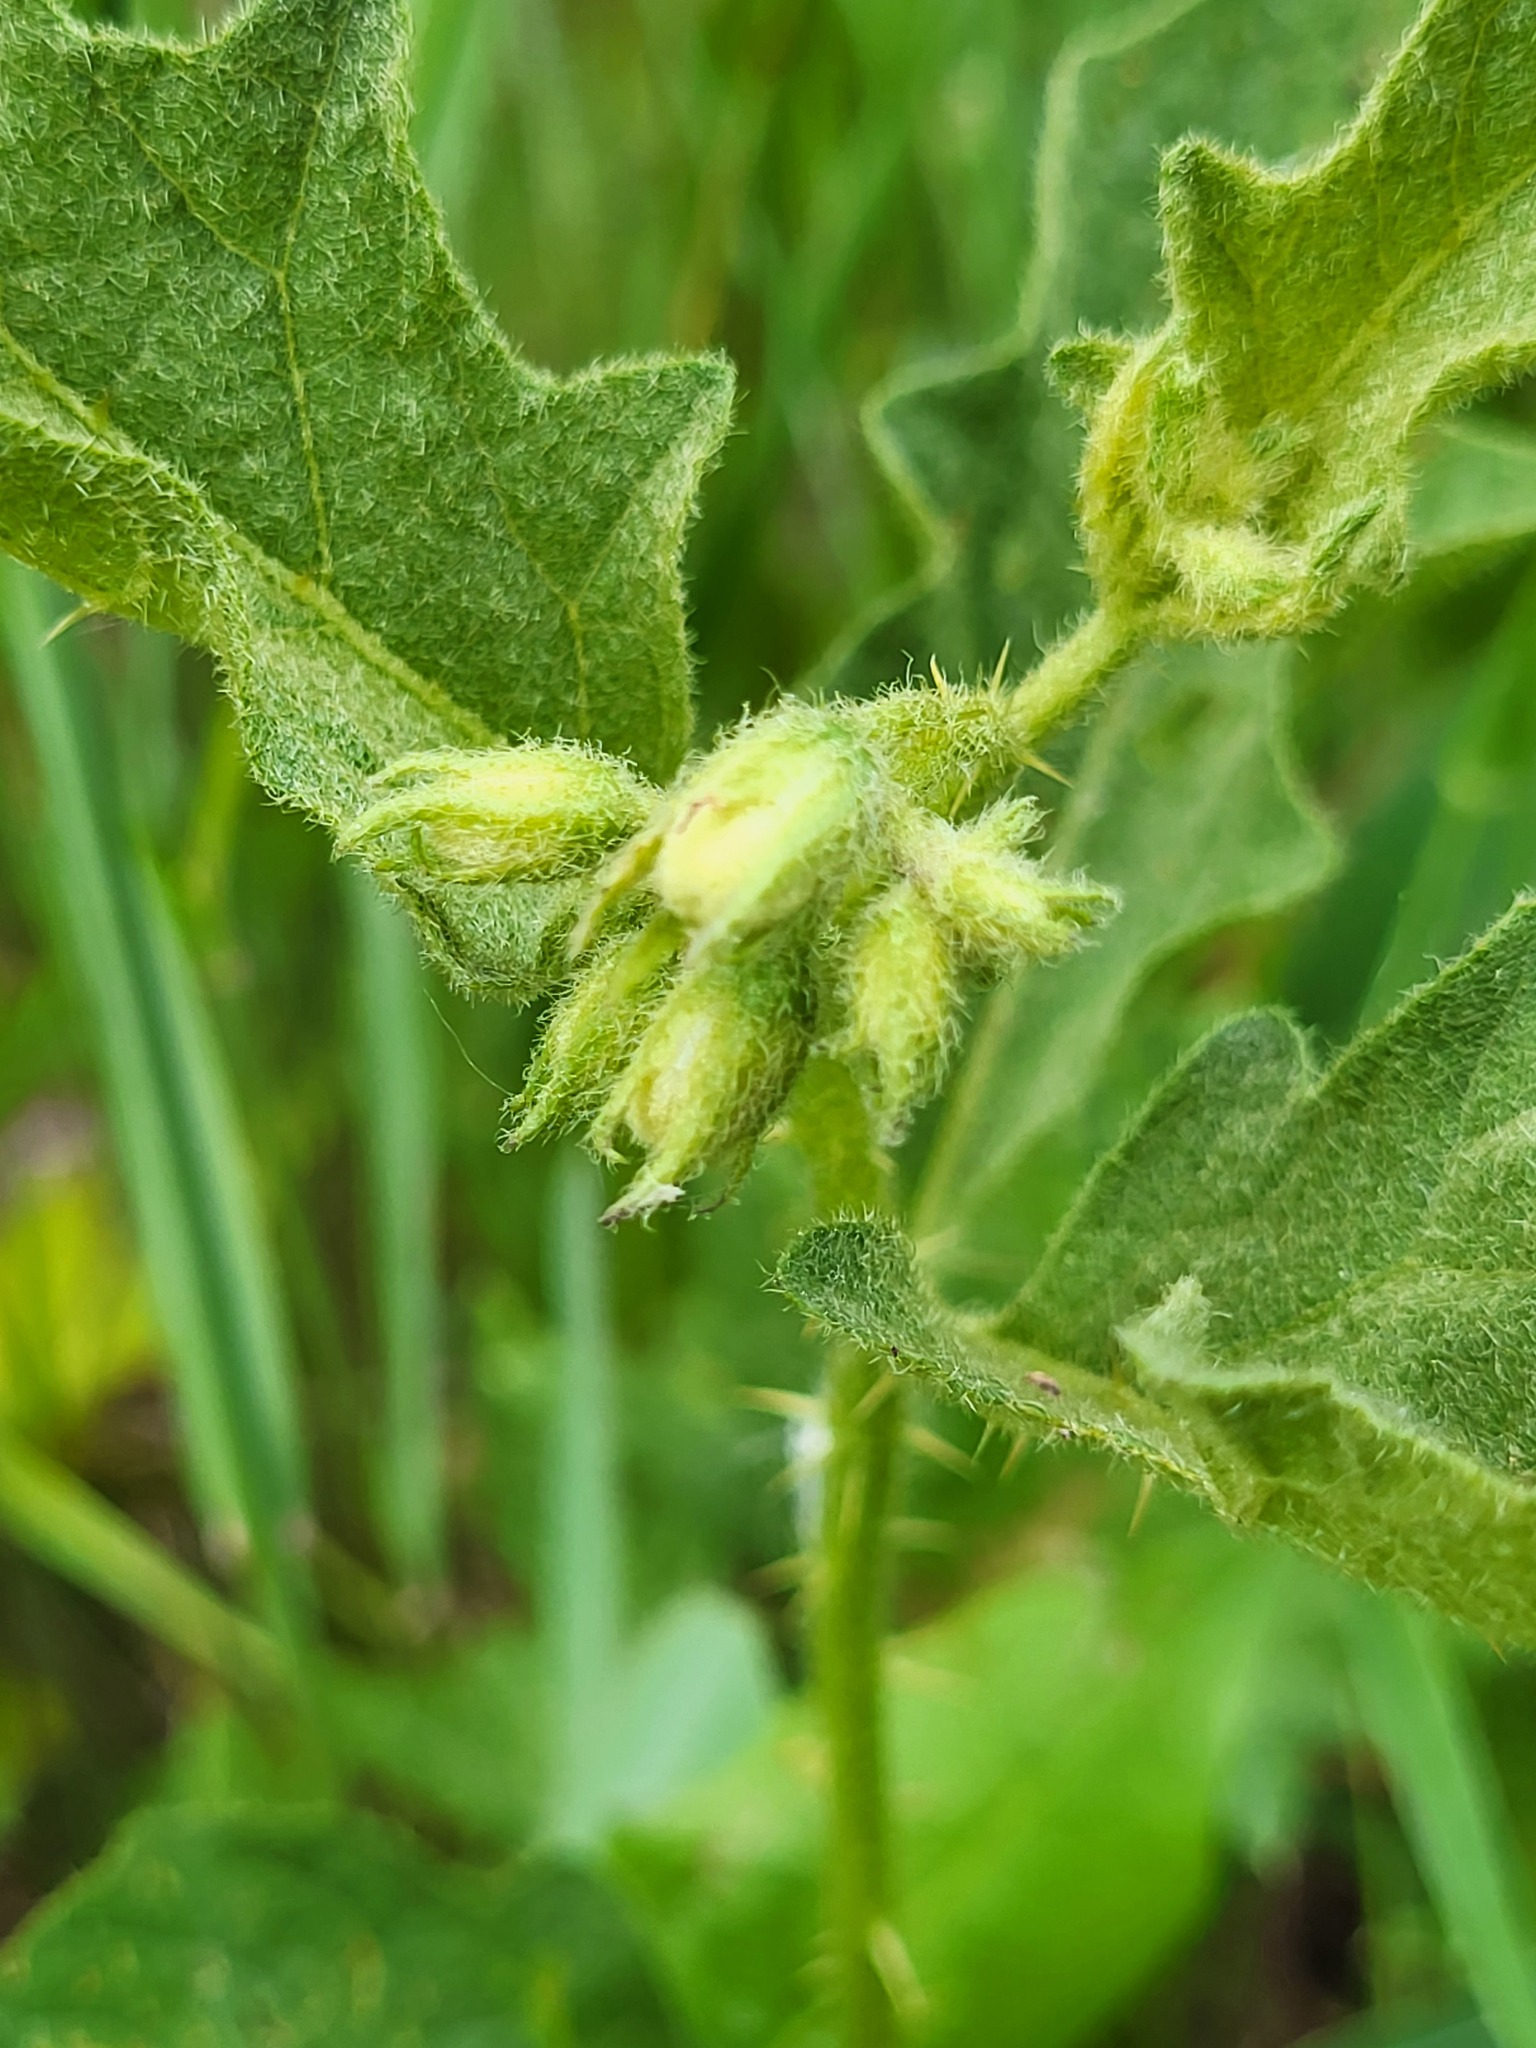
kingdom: Plantae
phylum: Tracheophyta
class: Magnoliopsida
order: Solanales
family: Solanaceae
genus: Solanum
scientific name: Solanum carolinense
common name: Horse-nettle
